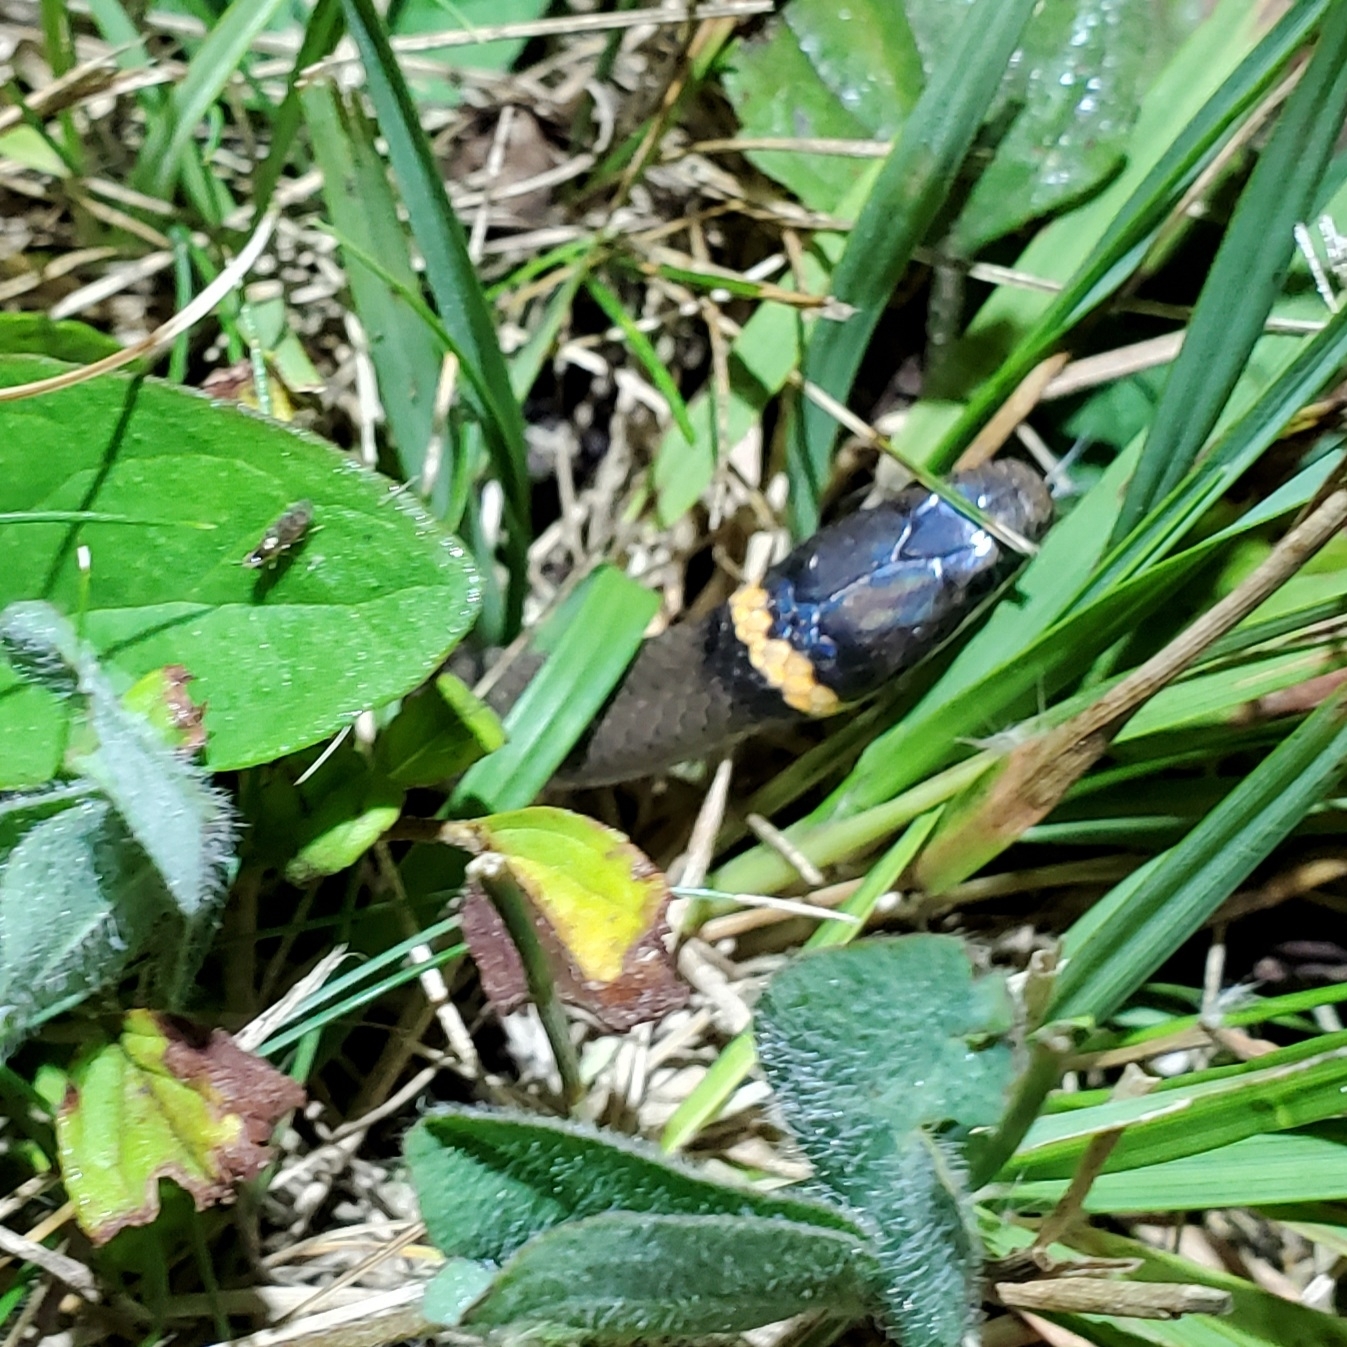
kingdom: Animalia
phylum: Chordata
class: Squamata
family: Colubridae
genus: Diadophis
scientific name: Diadophis punctatus
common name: Ringneck snake
